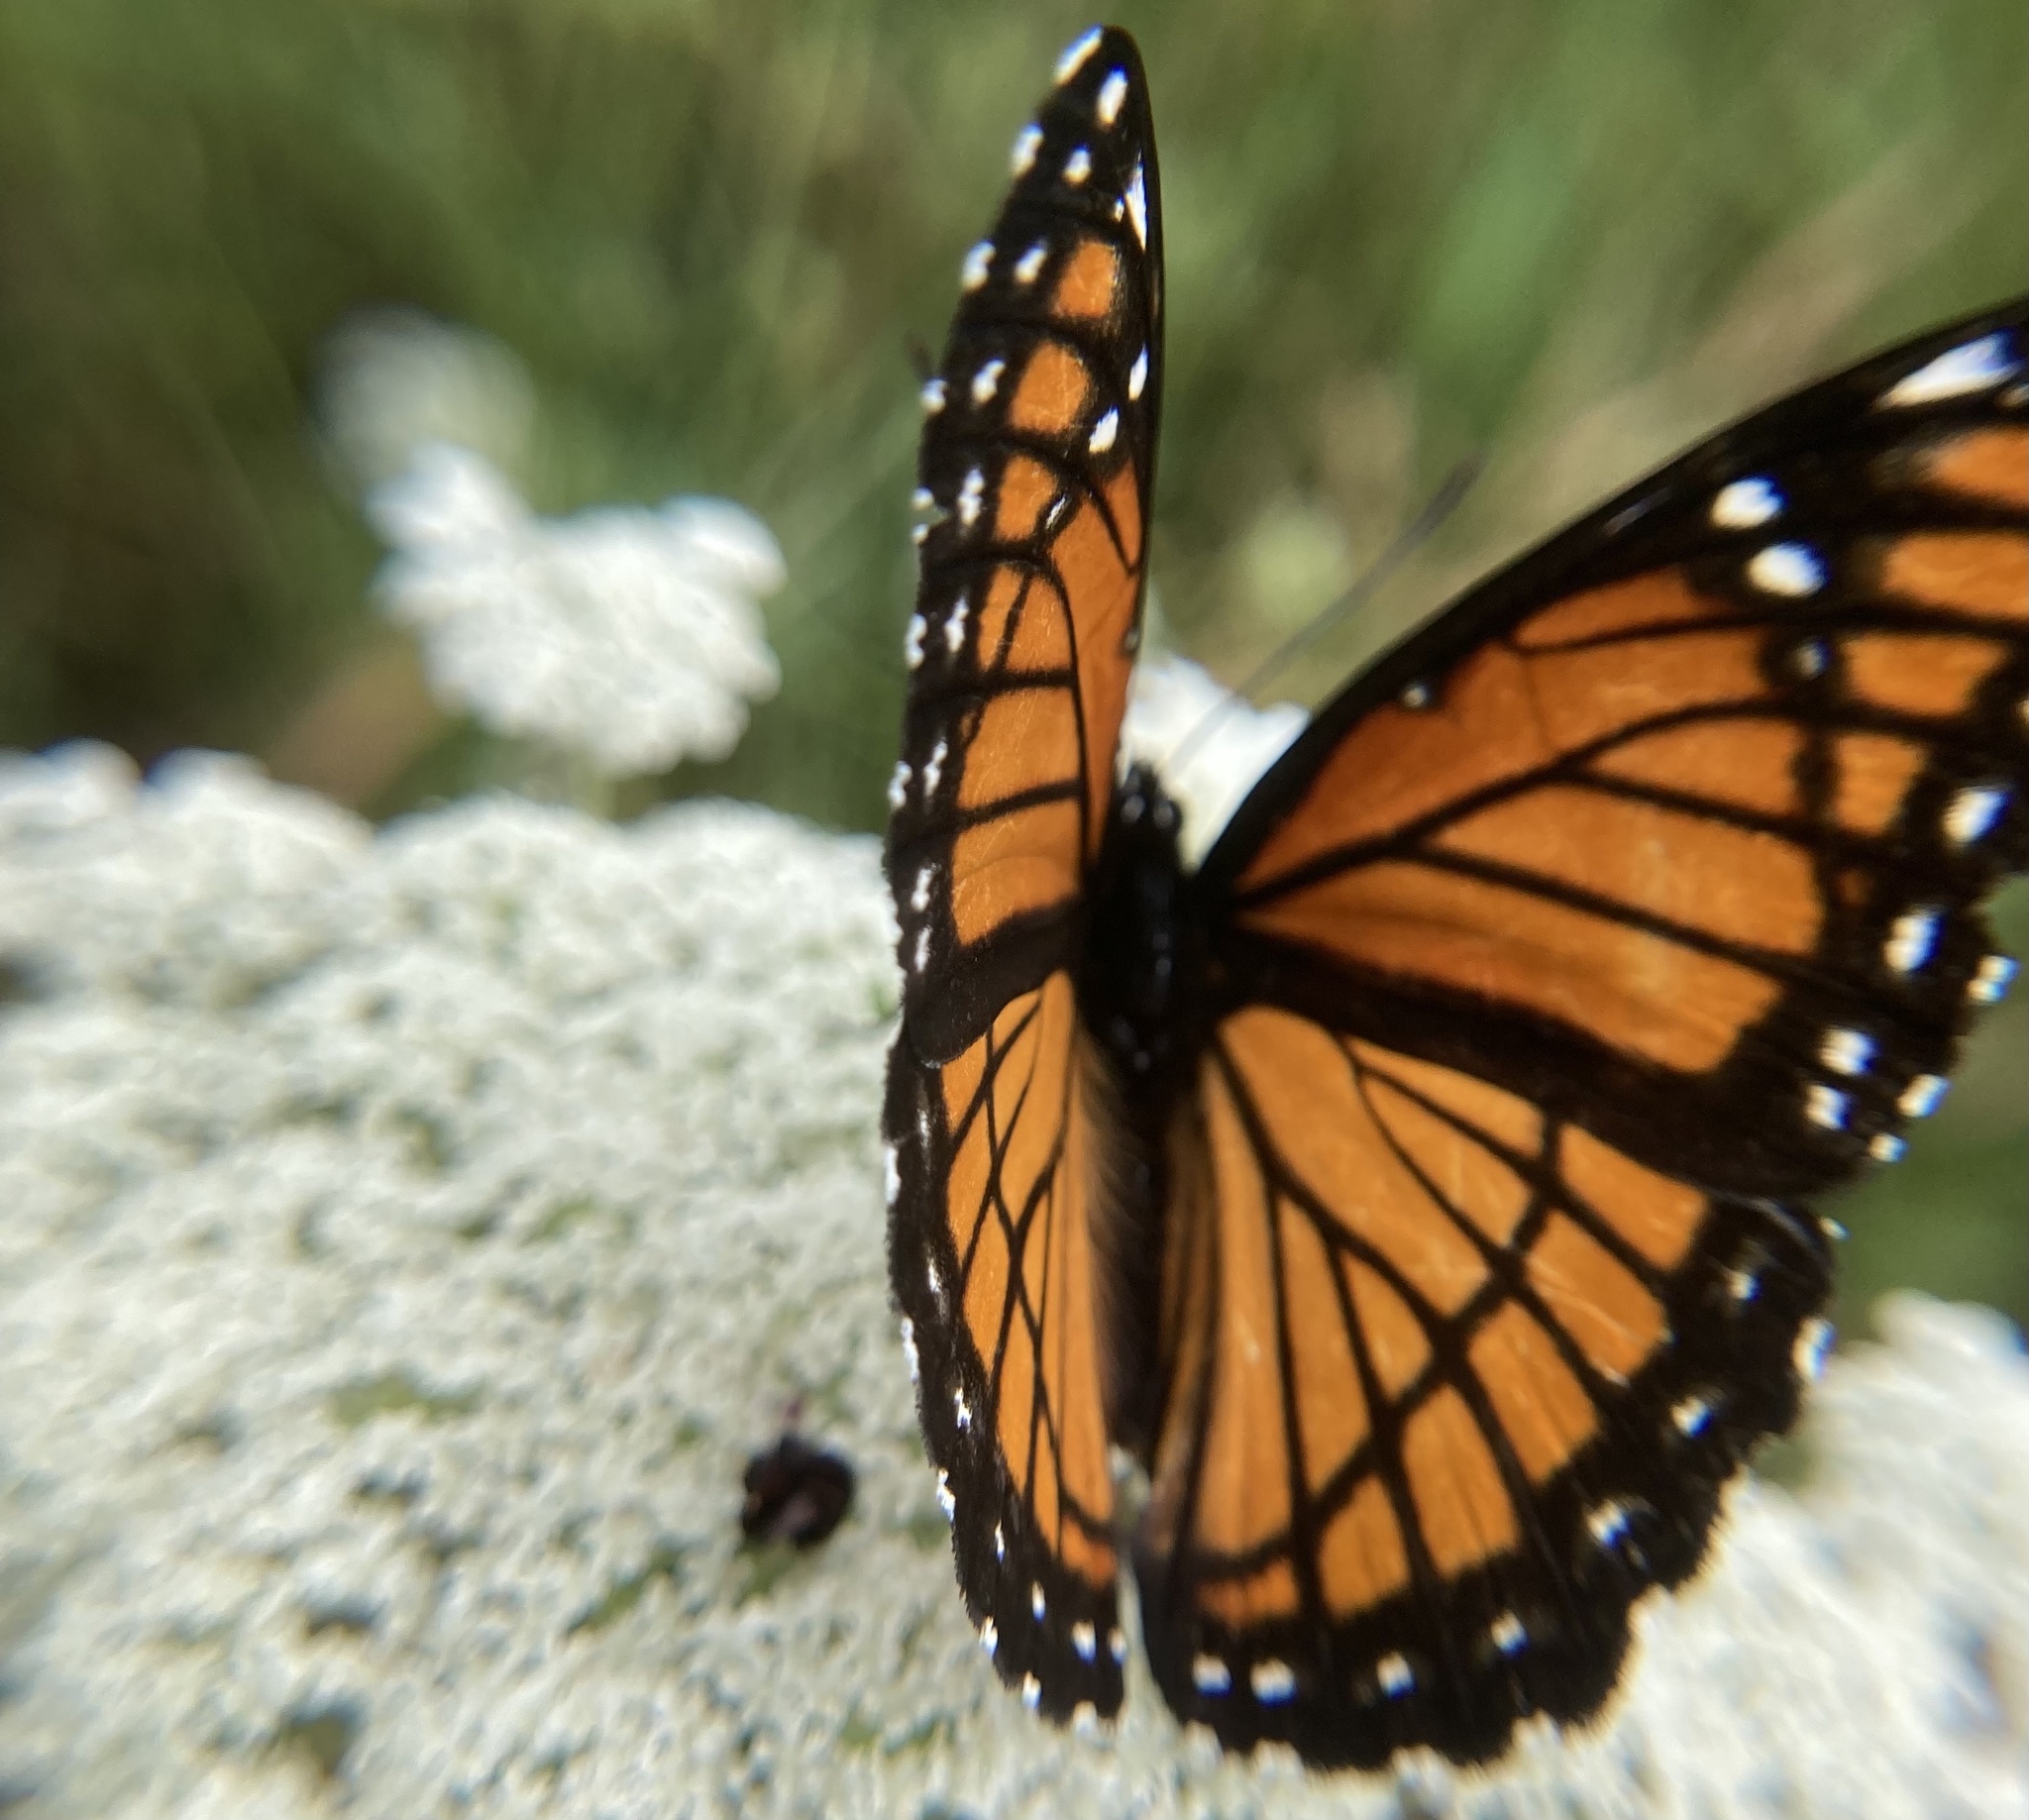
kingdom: Animalia
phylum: Arthropoda
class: Insecta
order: Lepidoptera
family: Nymphalidae
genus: Limenitis
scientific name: Limenitis archippus
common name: Viceroy
